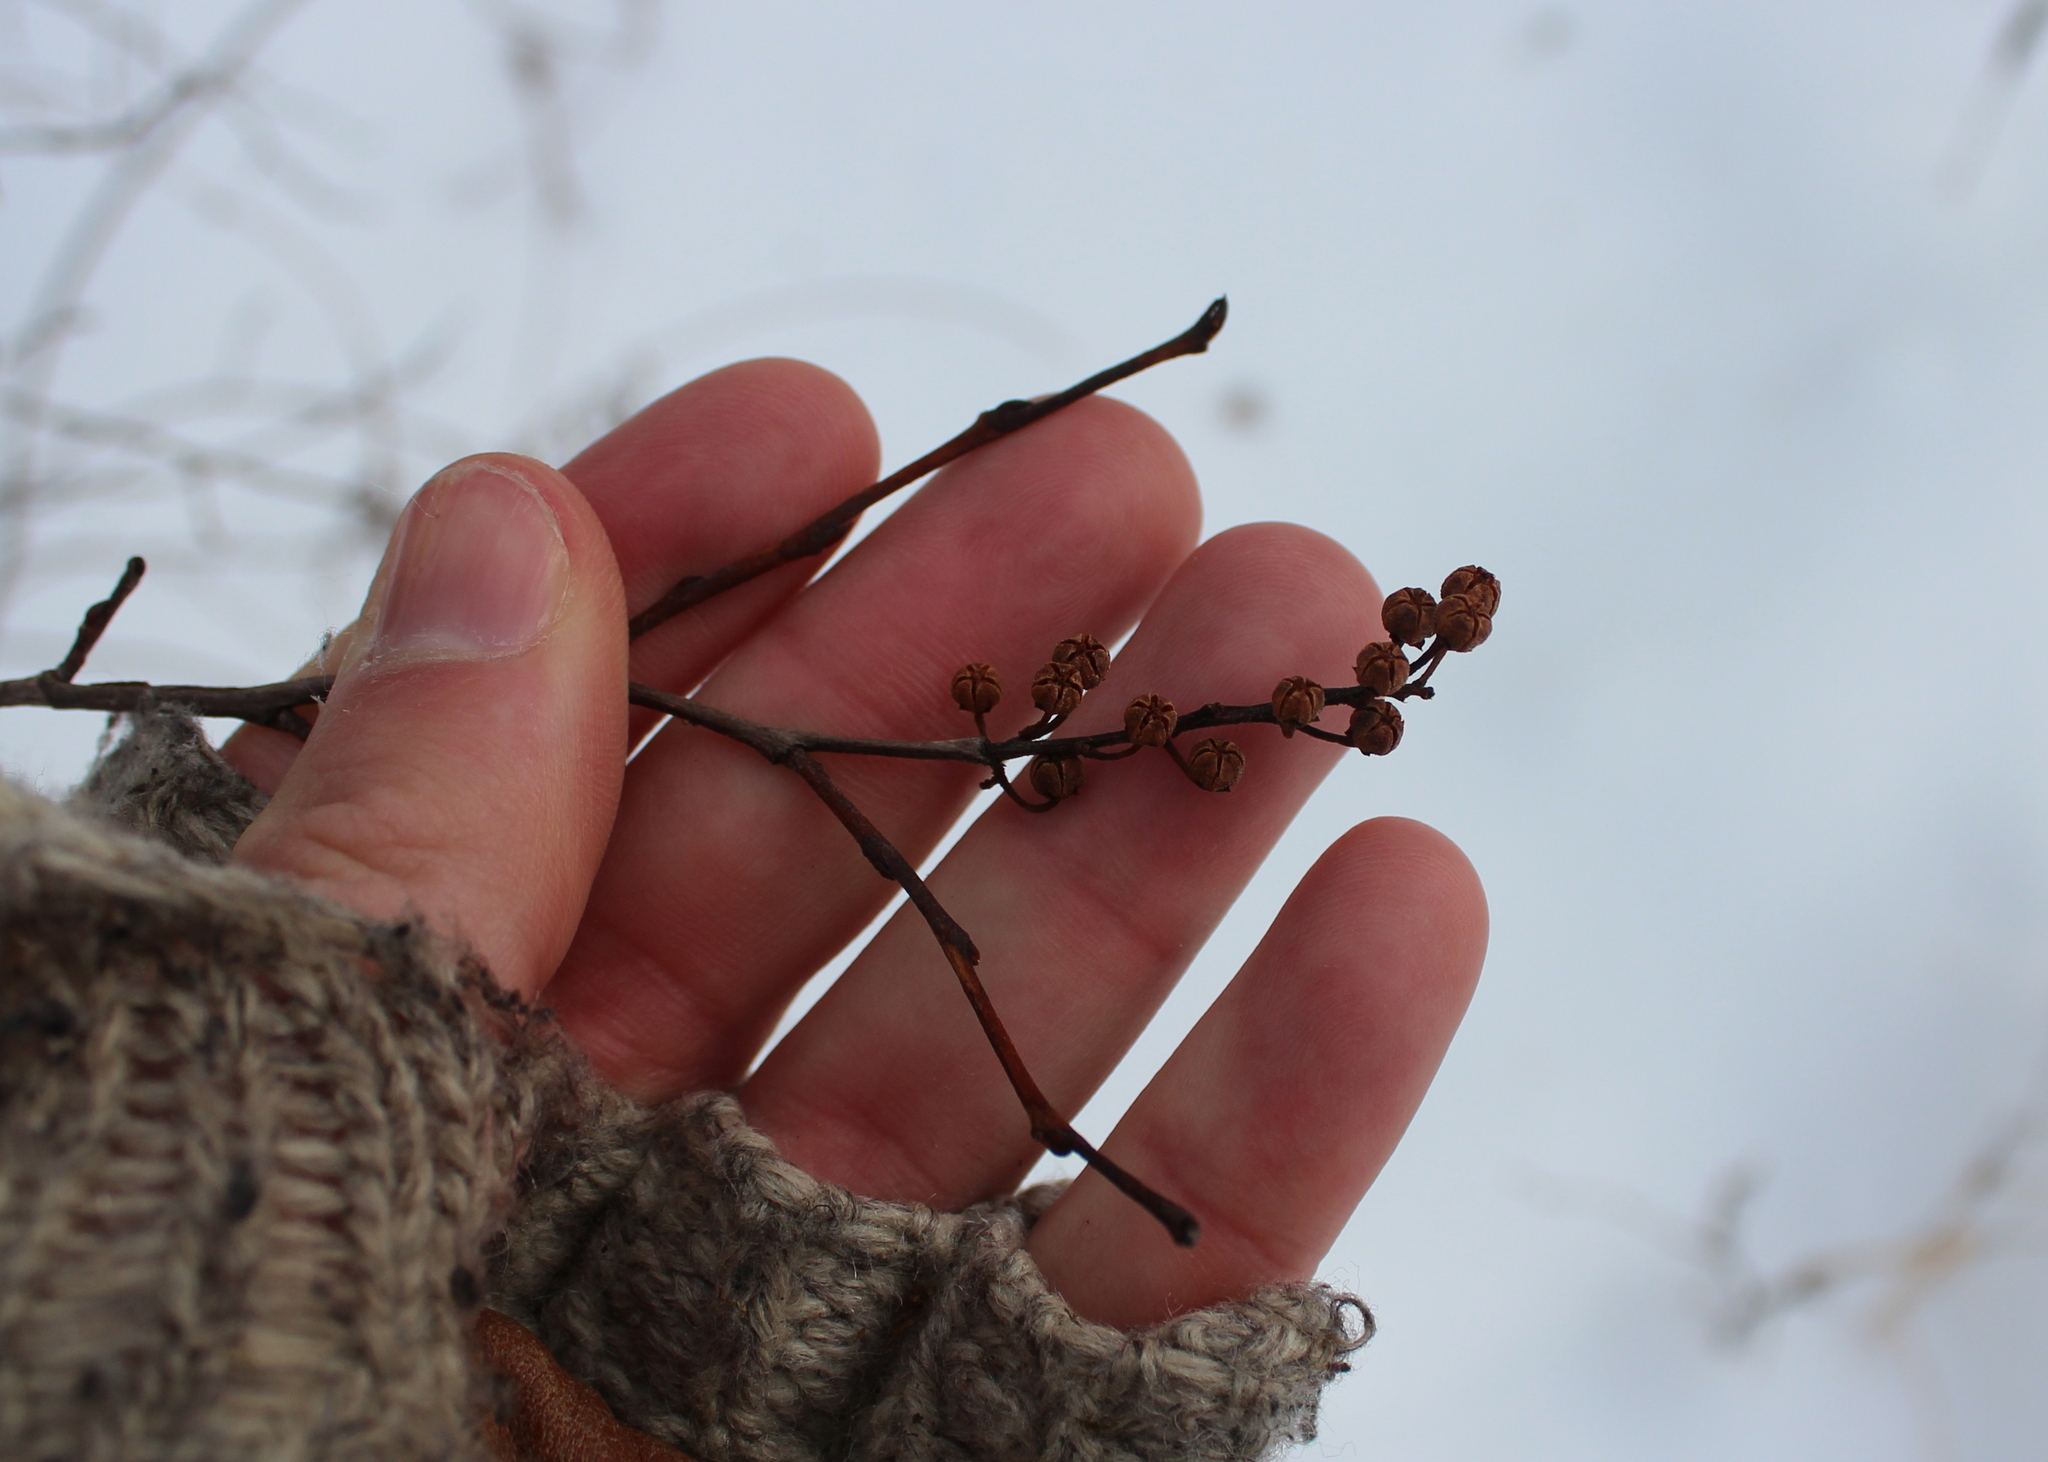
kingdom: Plantae
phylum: Tracheophyta
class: Magnoliopsida
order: Ericales
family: Ericaceae
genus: Lyonia
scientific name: Lyonia ligustrina
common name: Maleberry
